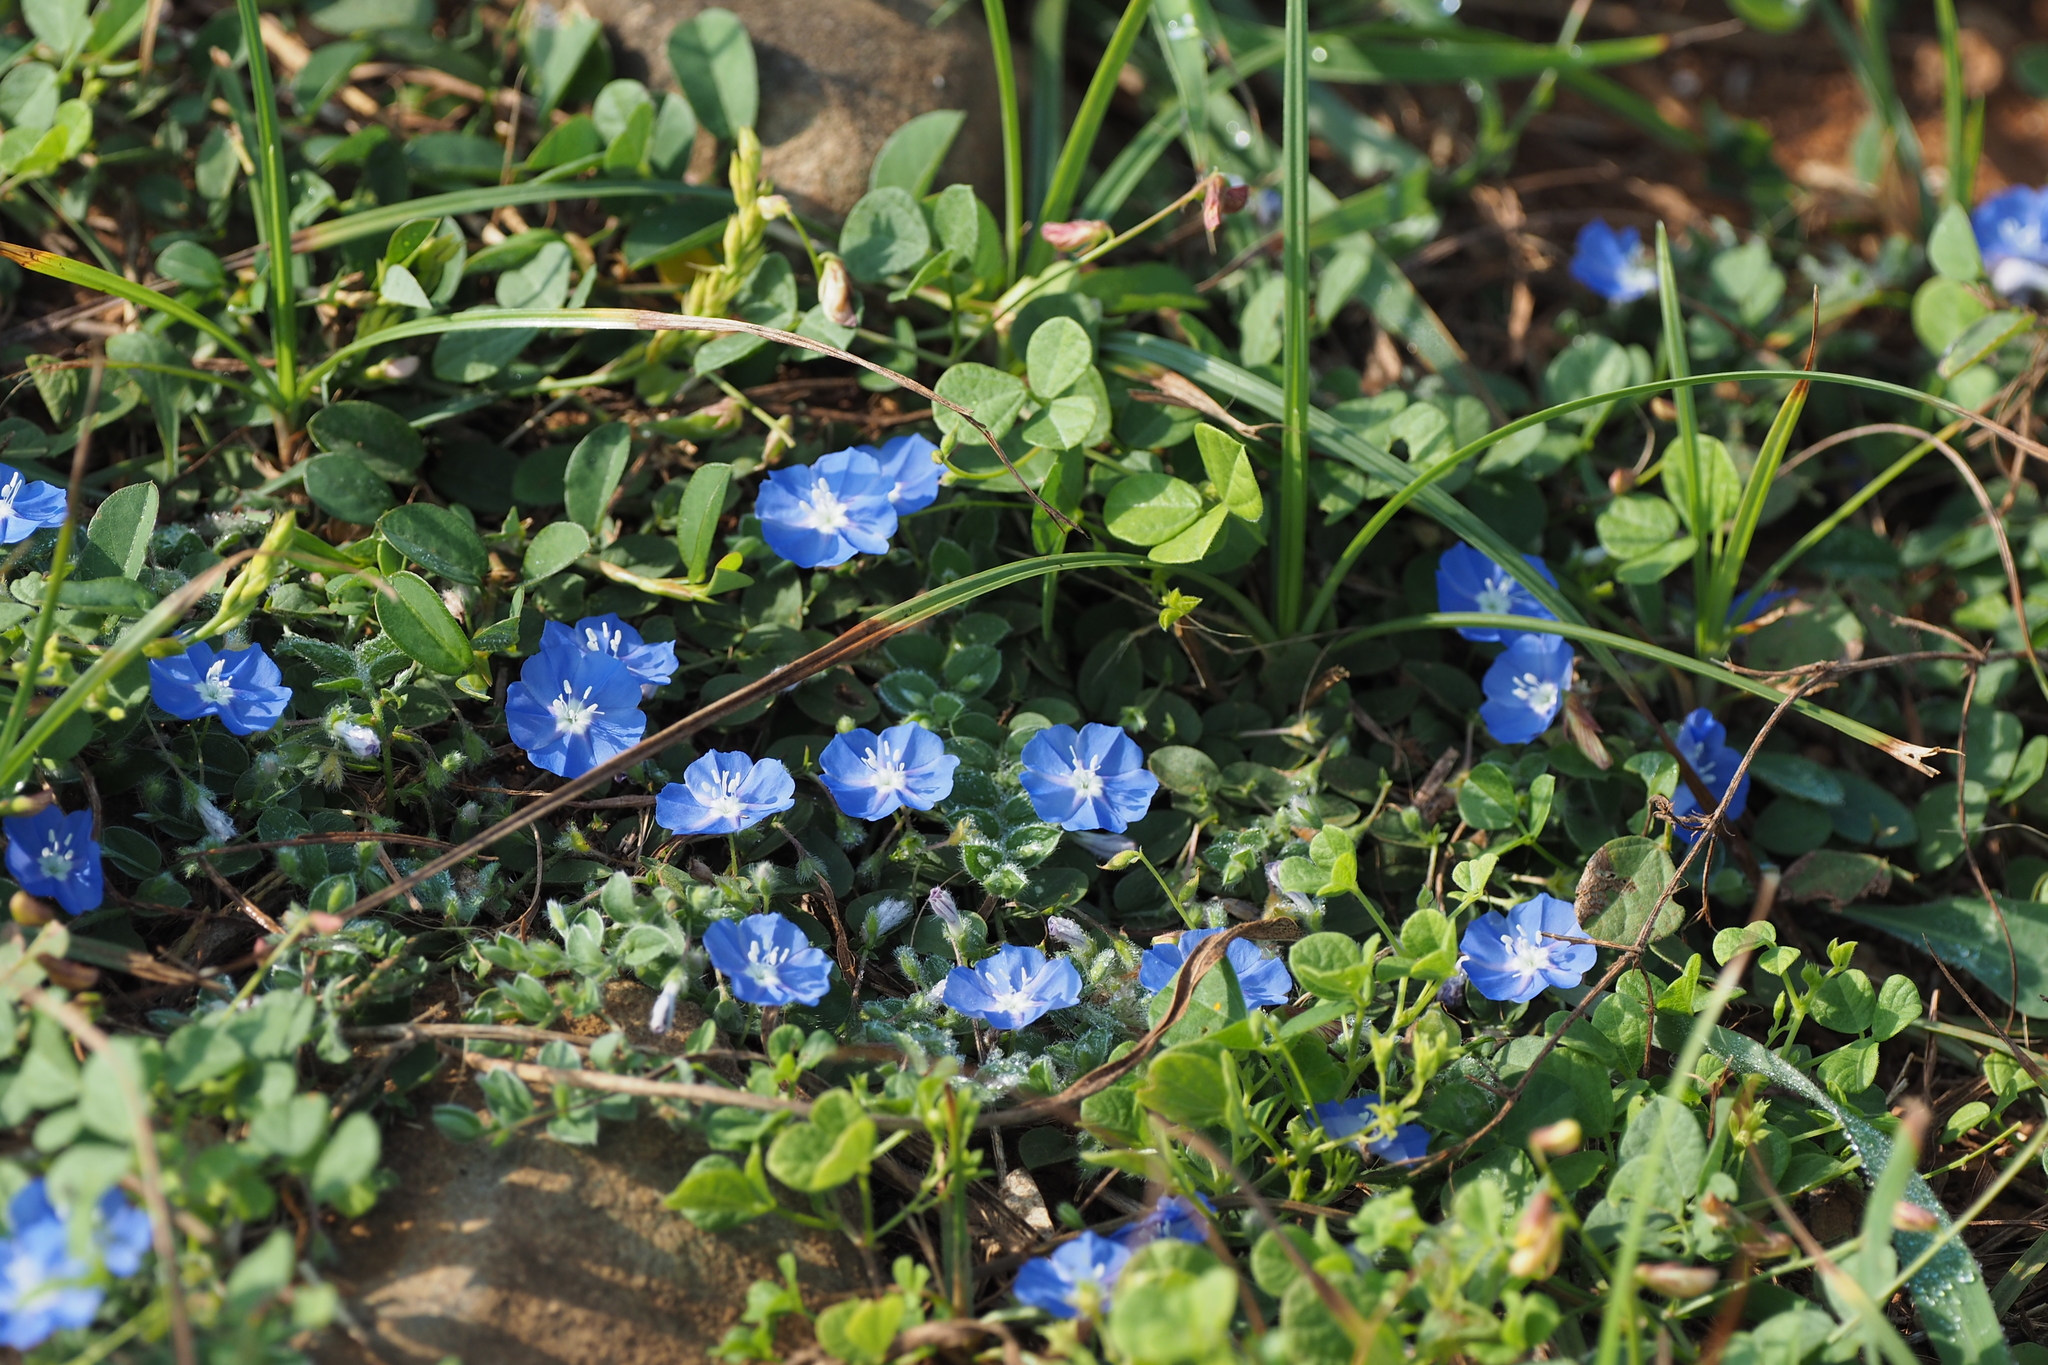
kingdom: Plantae
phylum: Tracheophyta
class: Magnoliopsida
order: Solanales
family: Convolvulaceae
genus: Evolvulus
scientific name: Evolvulus alsinoides
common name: Slender dwarf morning-glory
